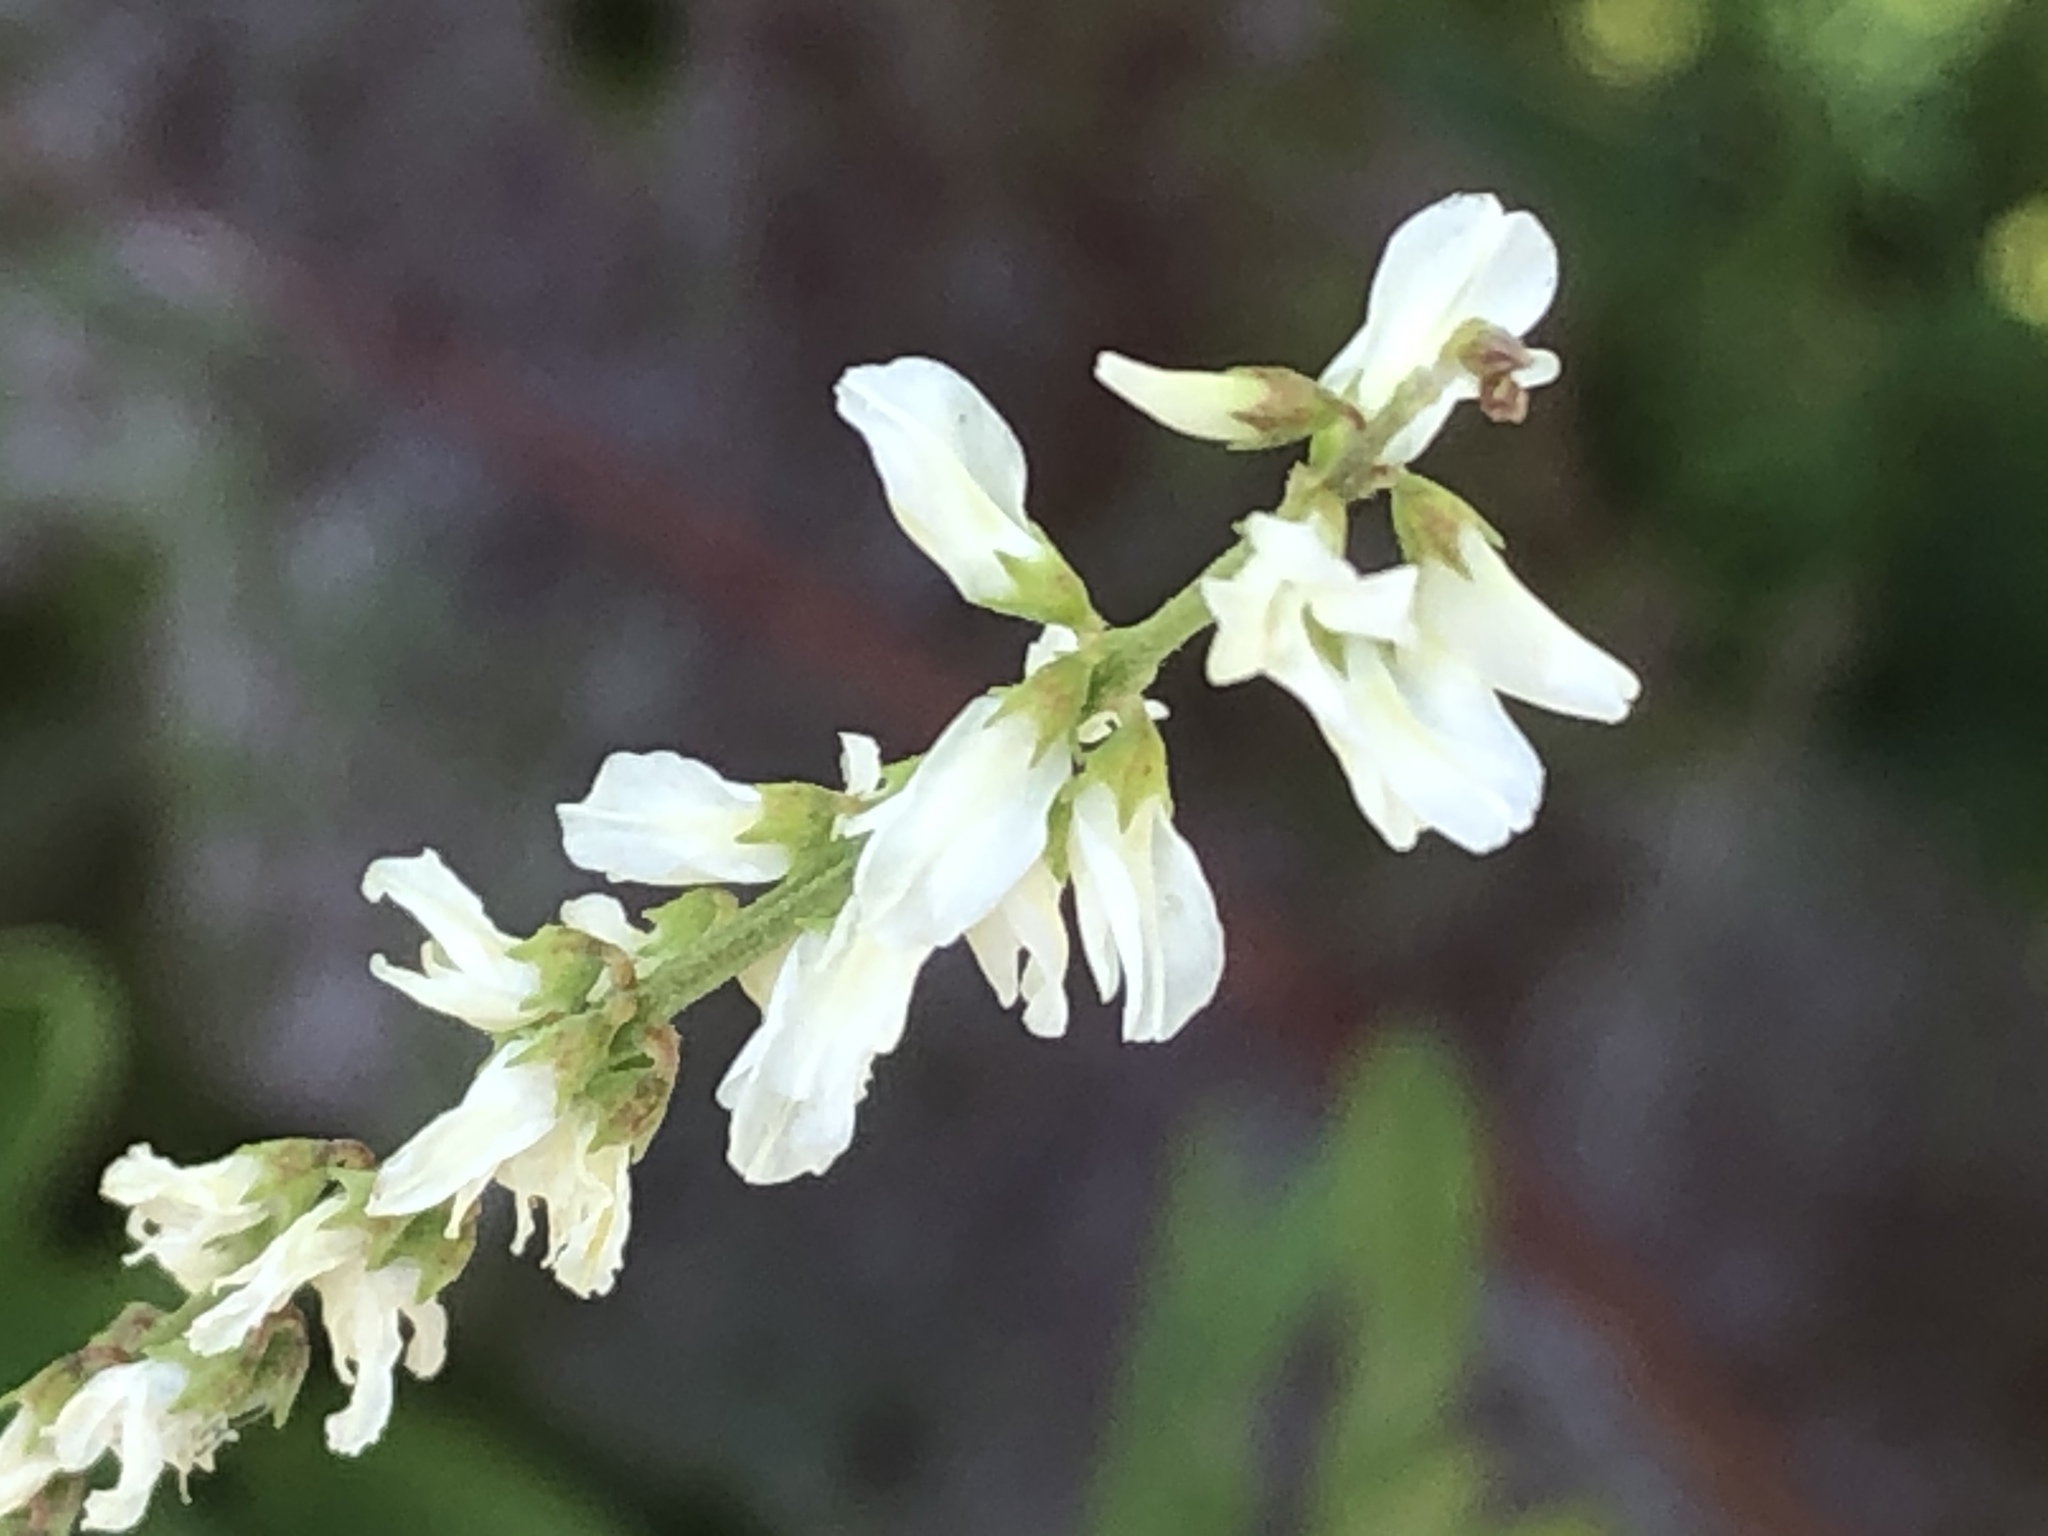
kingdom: Plantae
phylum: Tracheophyta
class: Magnoliopsida
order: Fabales
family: Fabaceae
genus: Melilotus
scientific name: Melilotus albus
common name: White melilot
